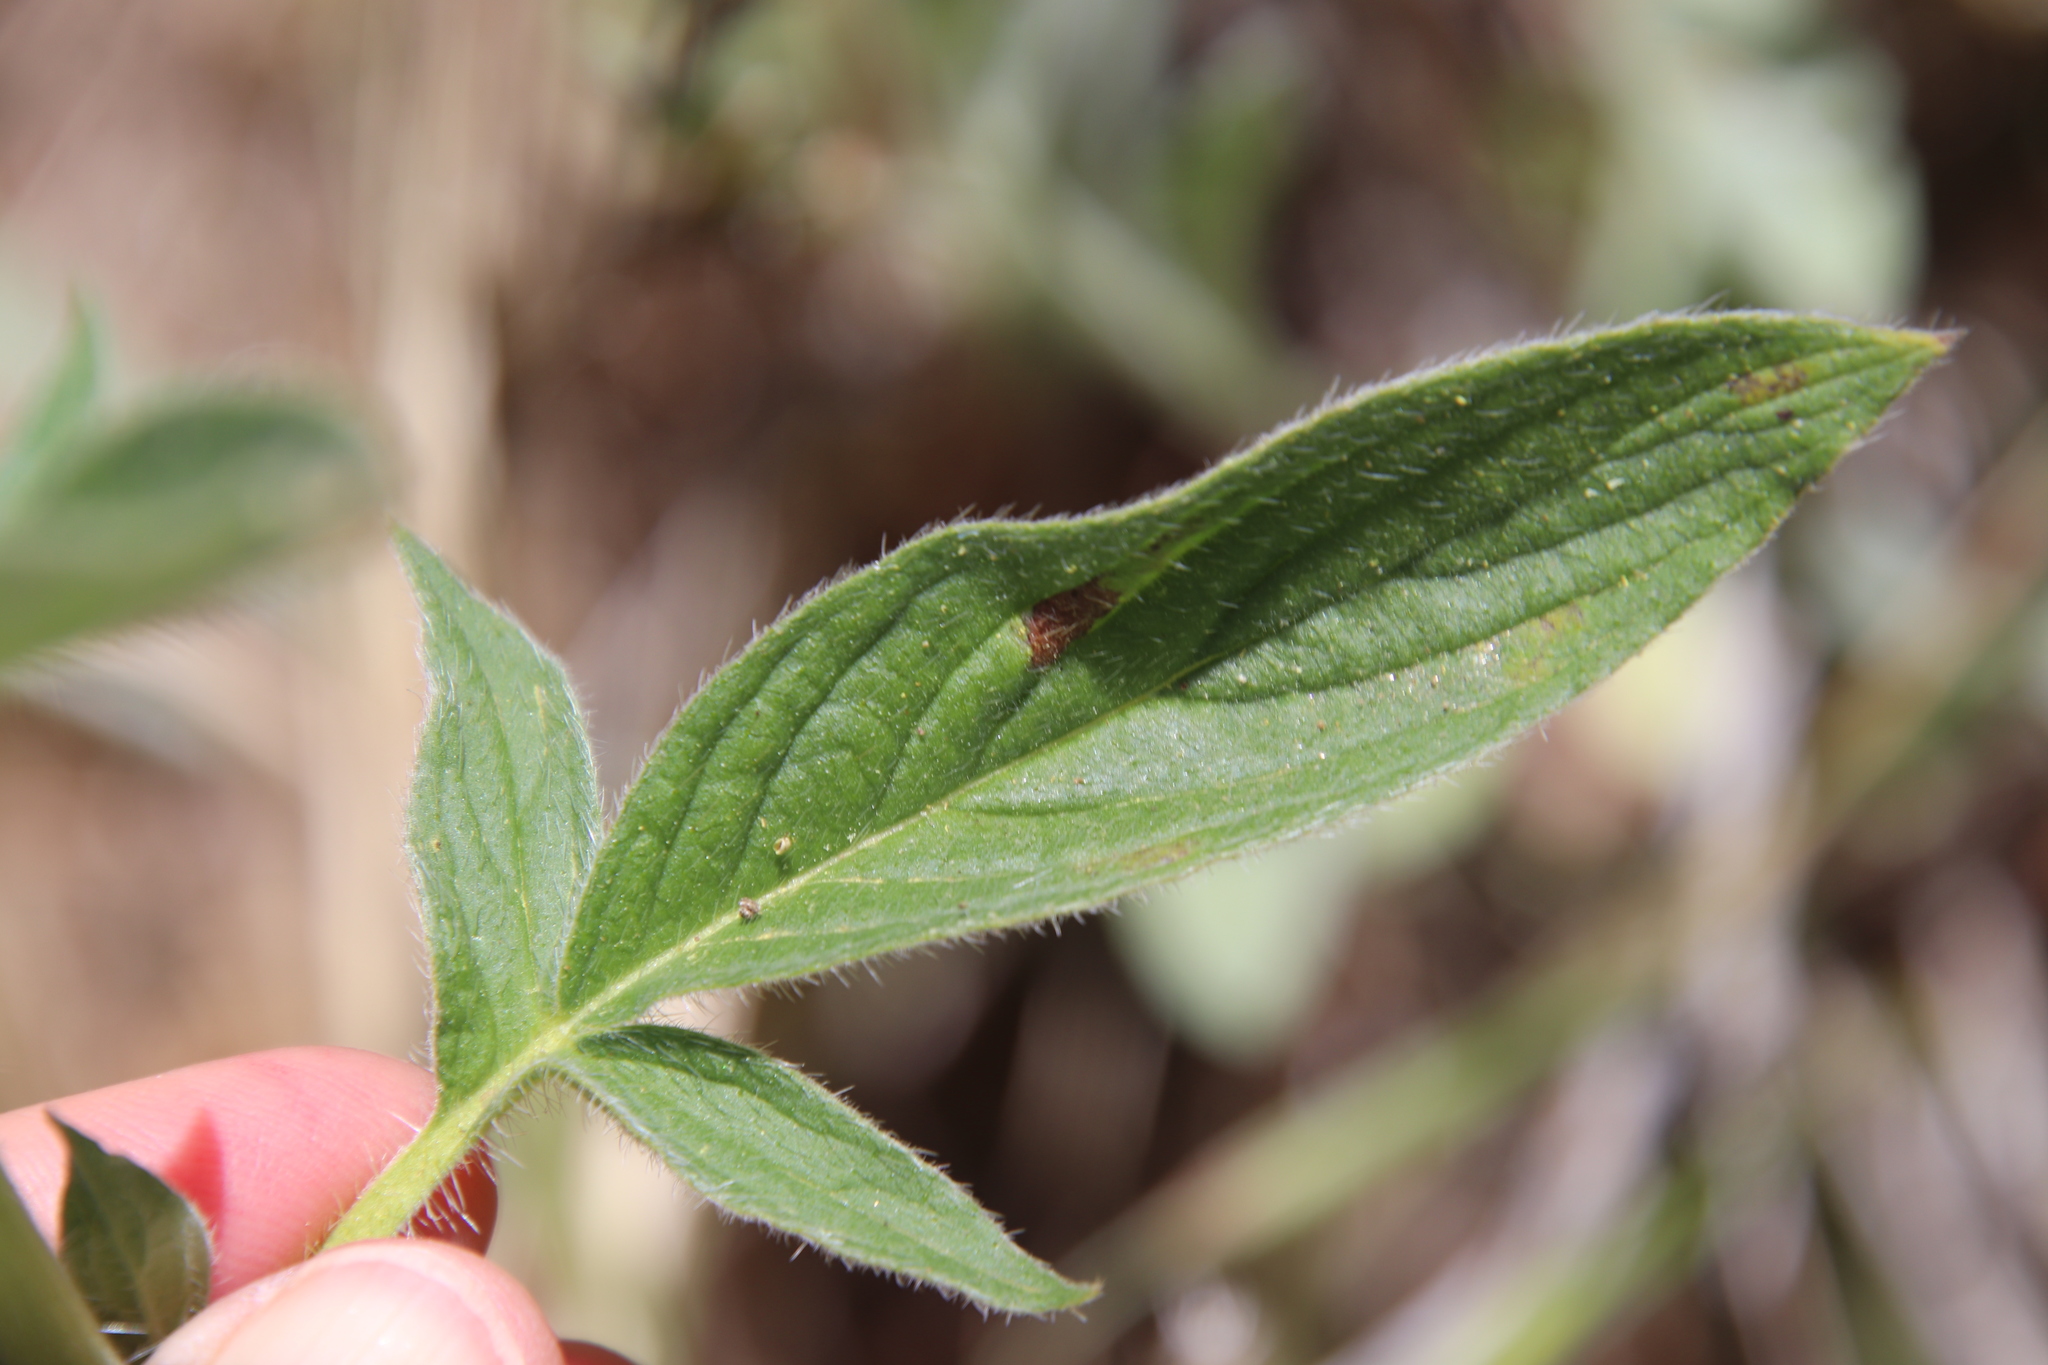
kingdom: Plantae
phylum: Tracheophyta
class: Magnoliopsida
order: Boraginales
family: Hydrophyllaceae
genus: Phacelia
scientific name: Phacelia imbricata
